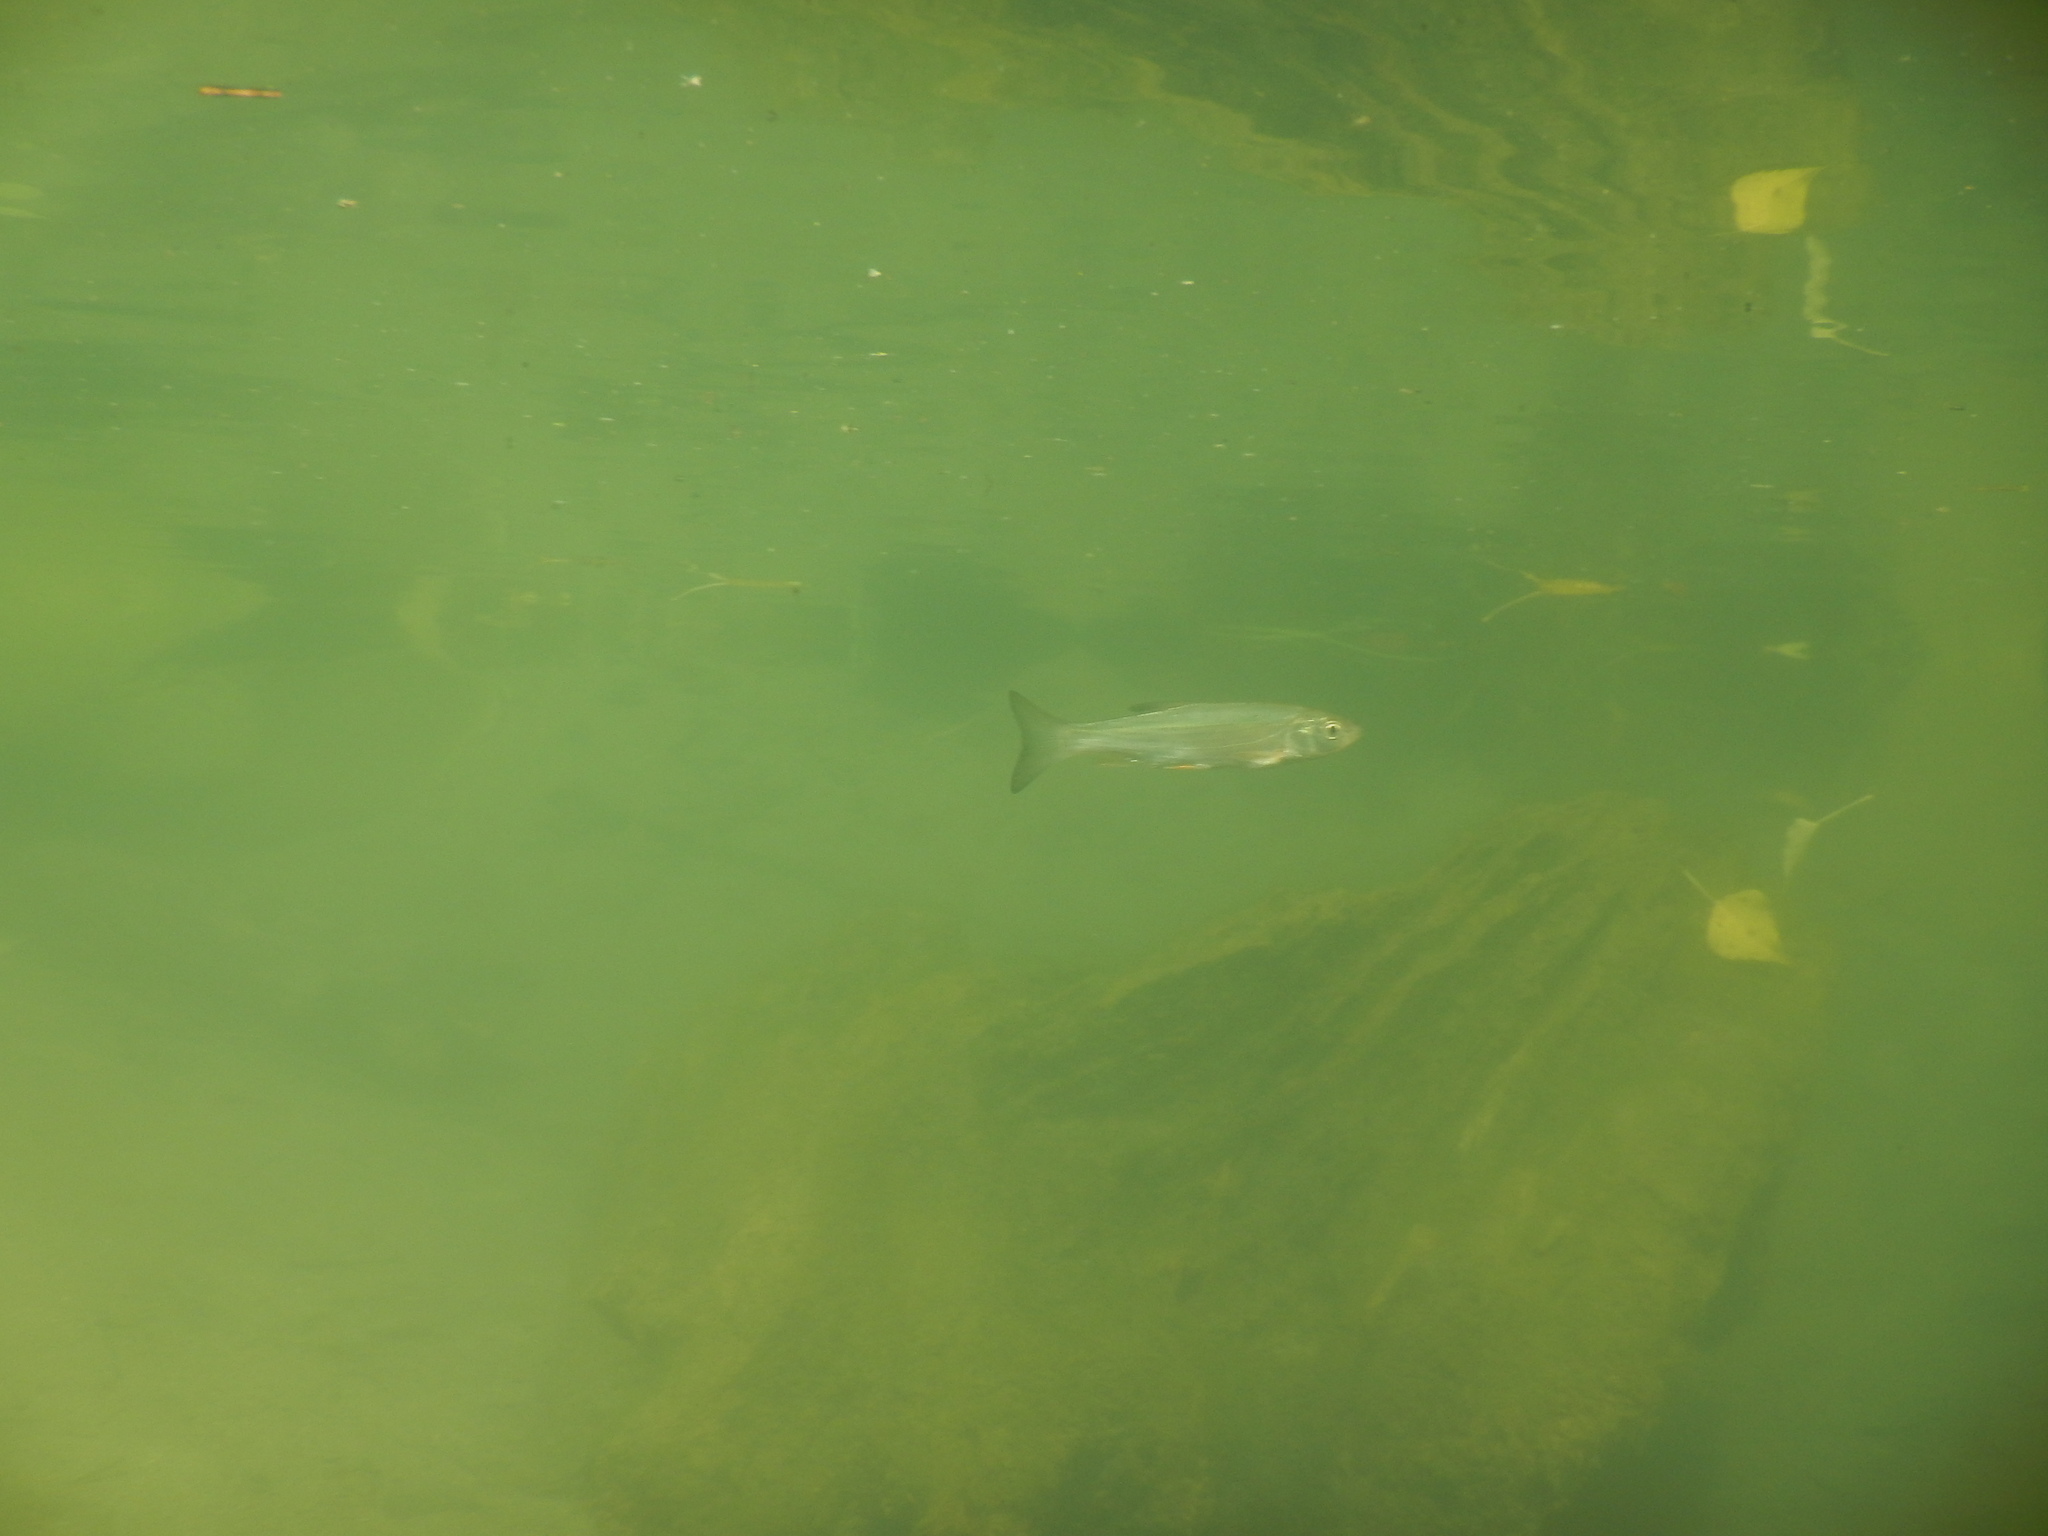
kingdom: Animalia
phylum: Chordata
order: Cypriniformes
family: Cyprinidae
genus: Squalius
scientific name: Squalius cephalus
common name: Chub
